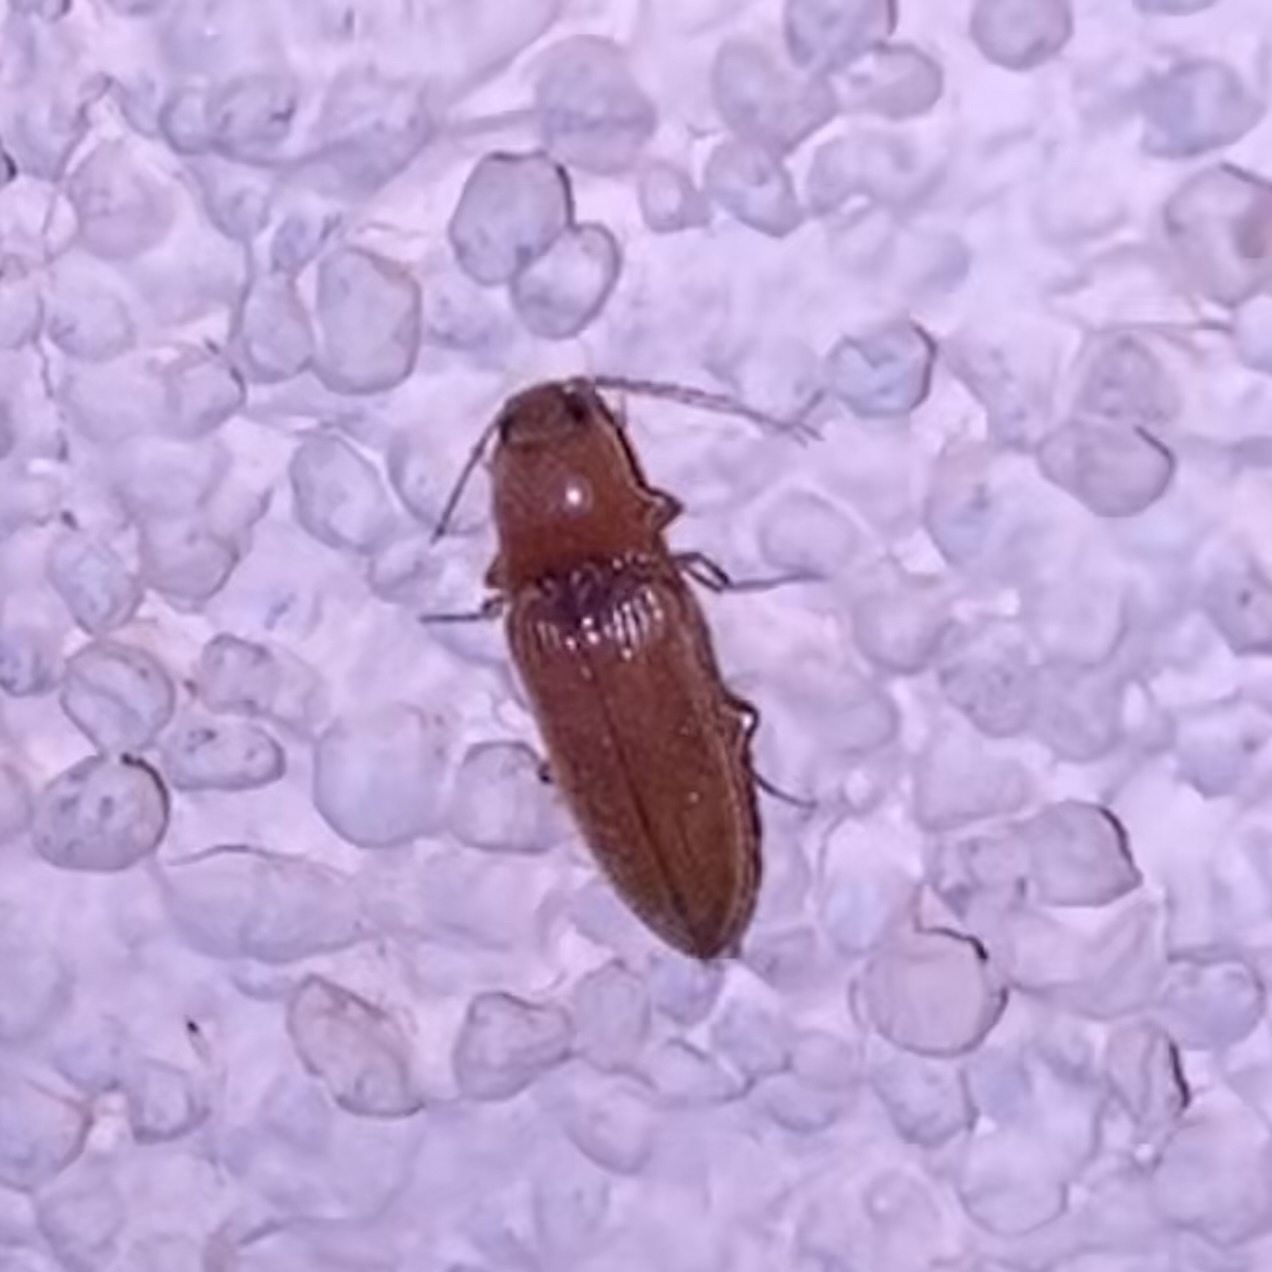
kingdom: Animalia
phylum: Arthropoda
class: Insecta
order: Coleoptera
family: Elateridae
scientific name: Elateridae
